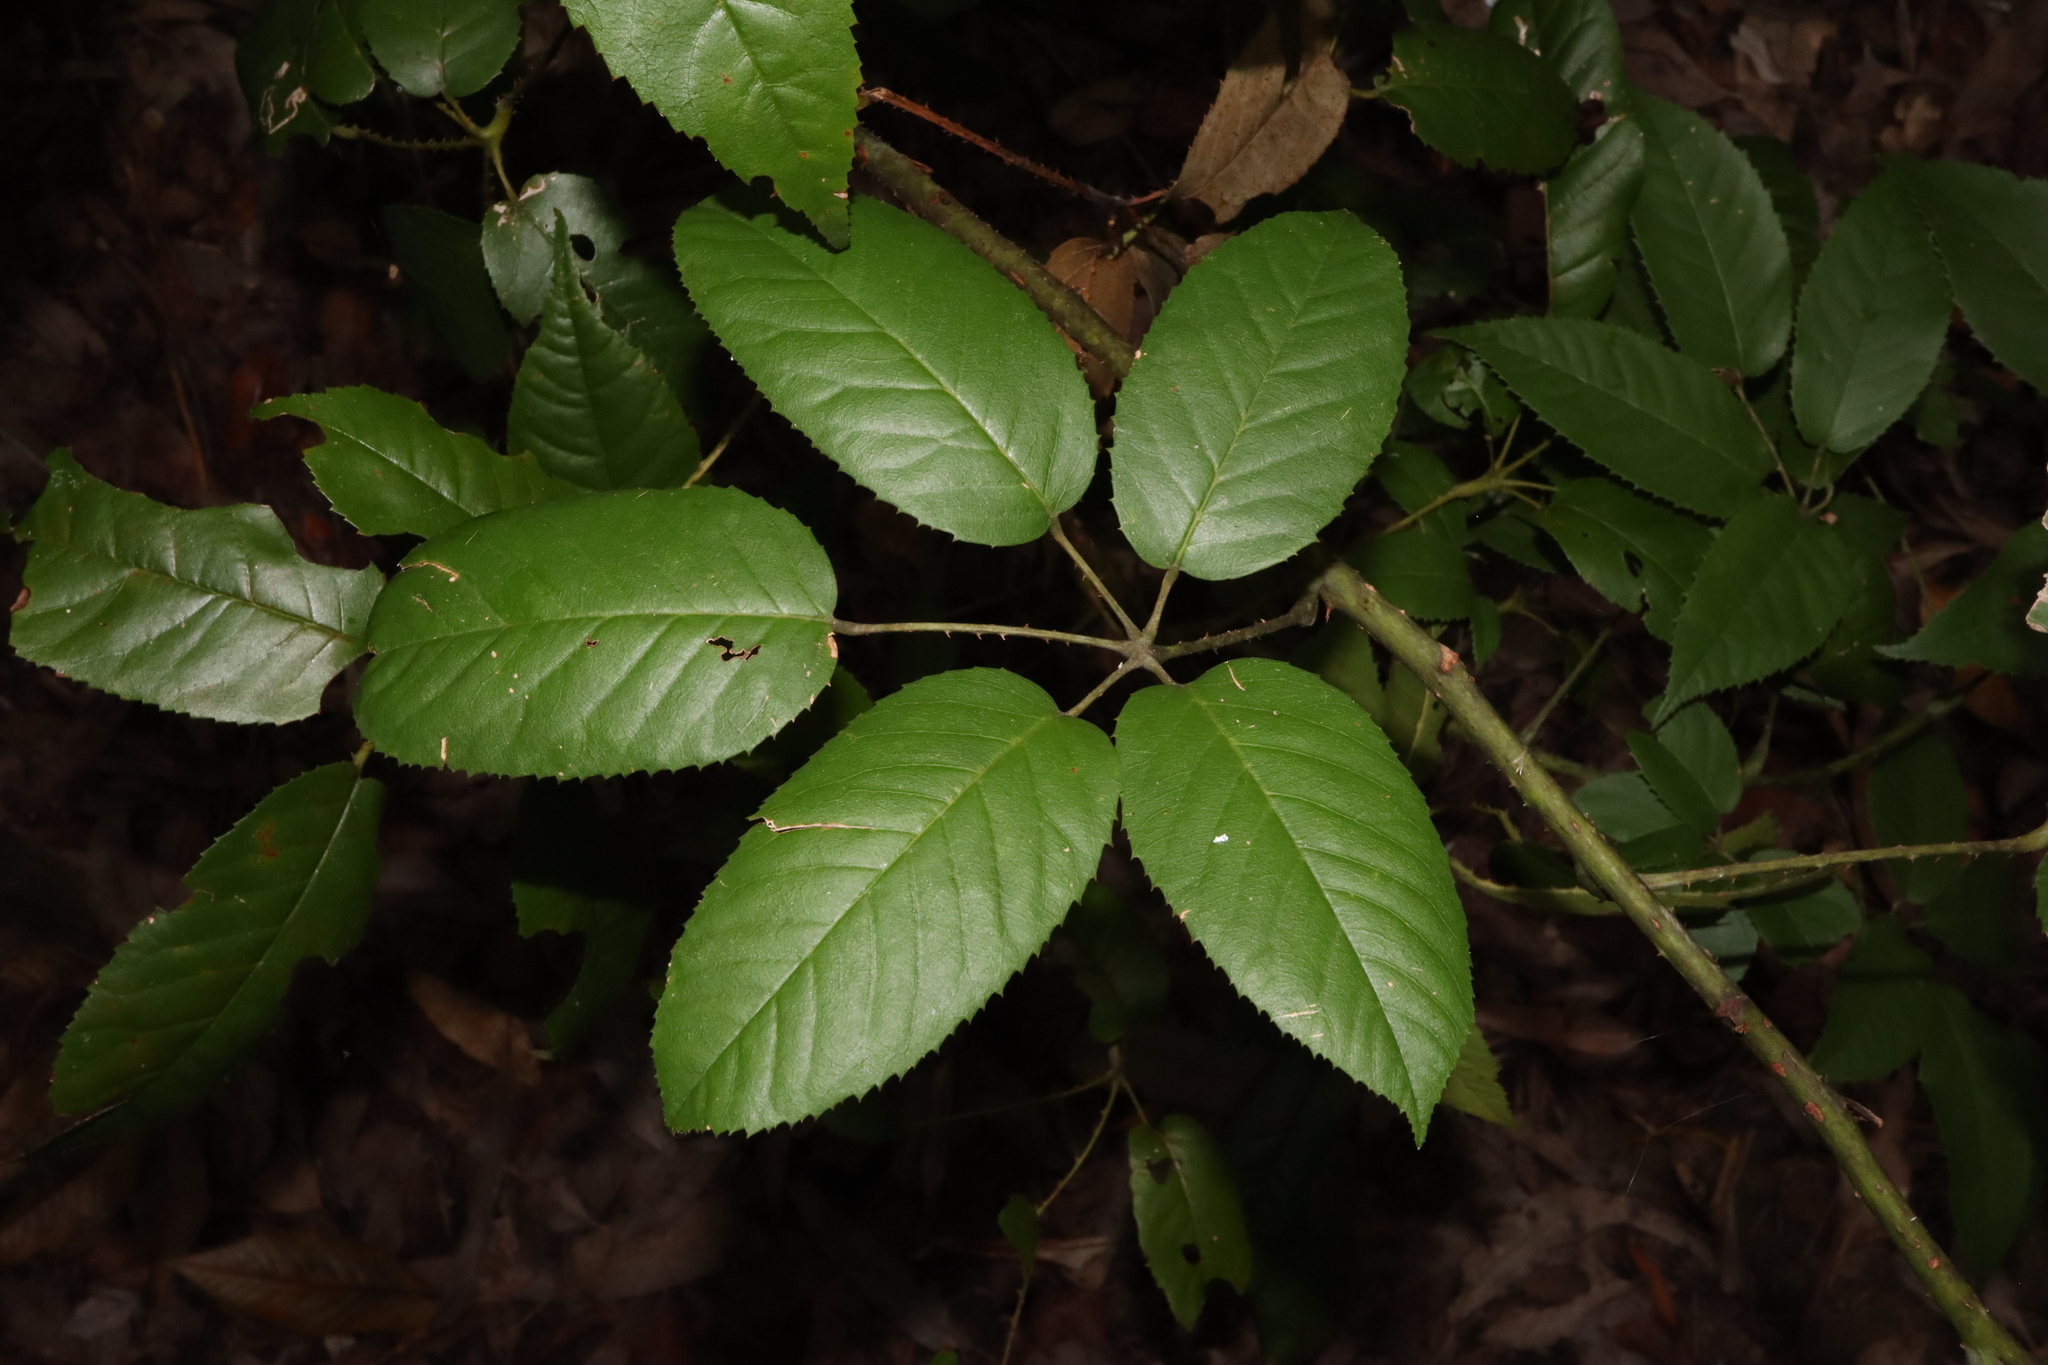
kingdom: Plantae
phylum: Tracheophyta
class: Magnoliopsida
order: Rosales
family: Rosaceae
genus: Rubus
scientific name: Rubus nebulosus
